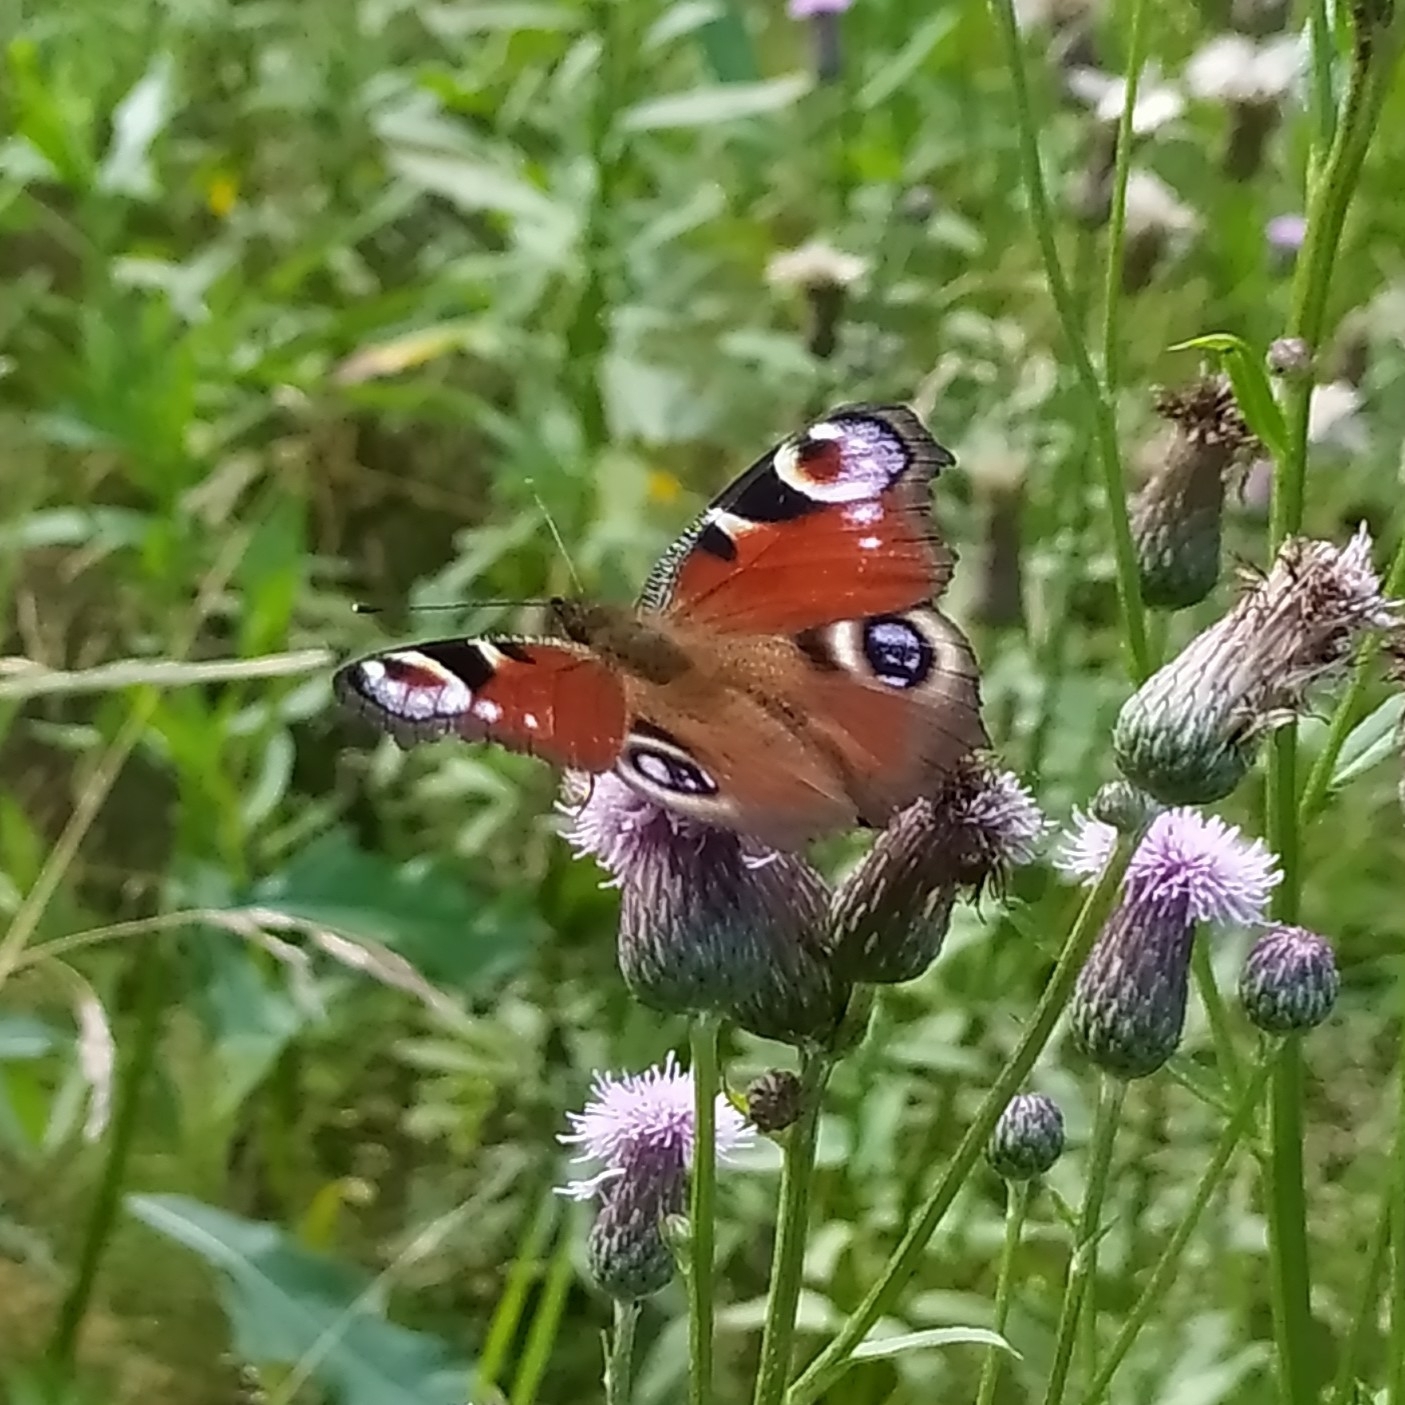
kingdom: Animalia
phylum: Arthropoda
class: Insecta
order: Lepidoptera
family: Nymphalidae
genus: Aglais
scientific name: Aglais io
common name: Peacock
